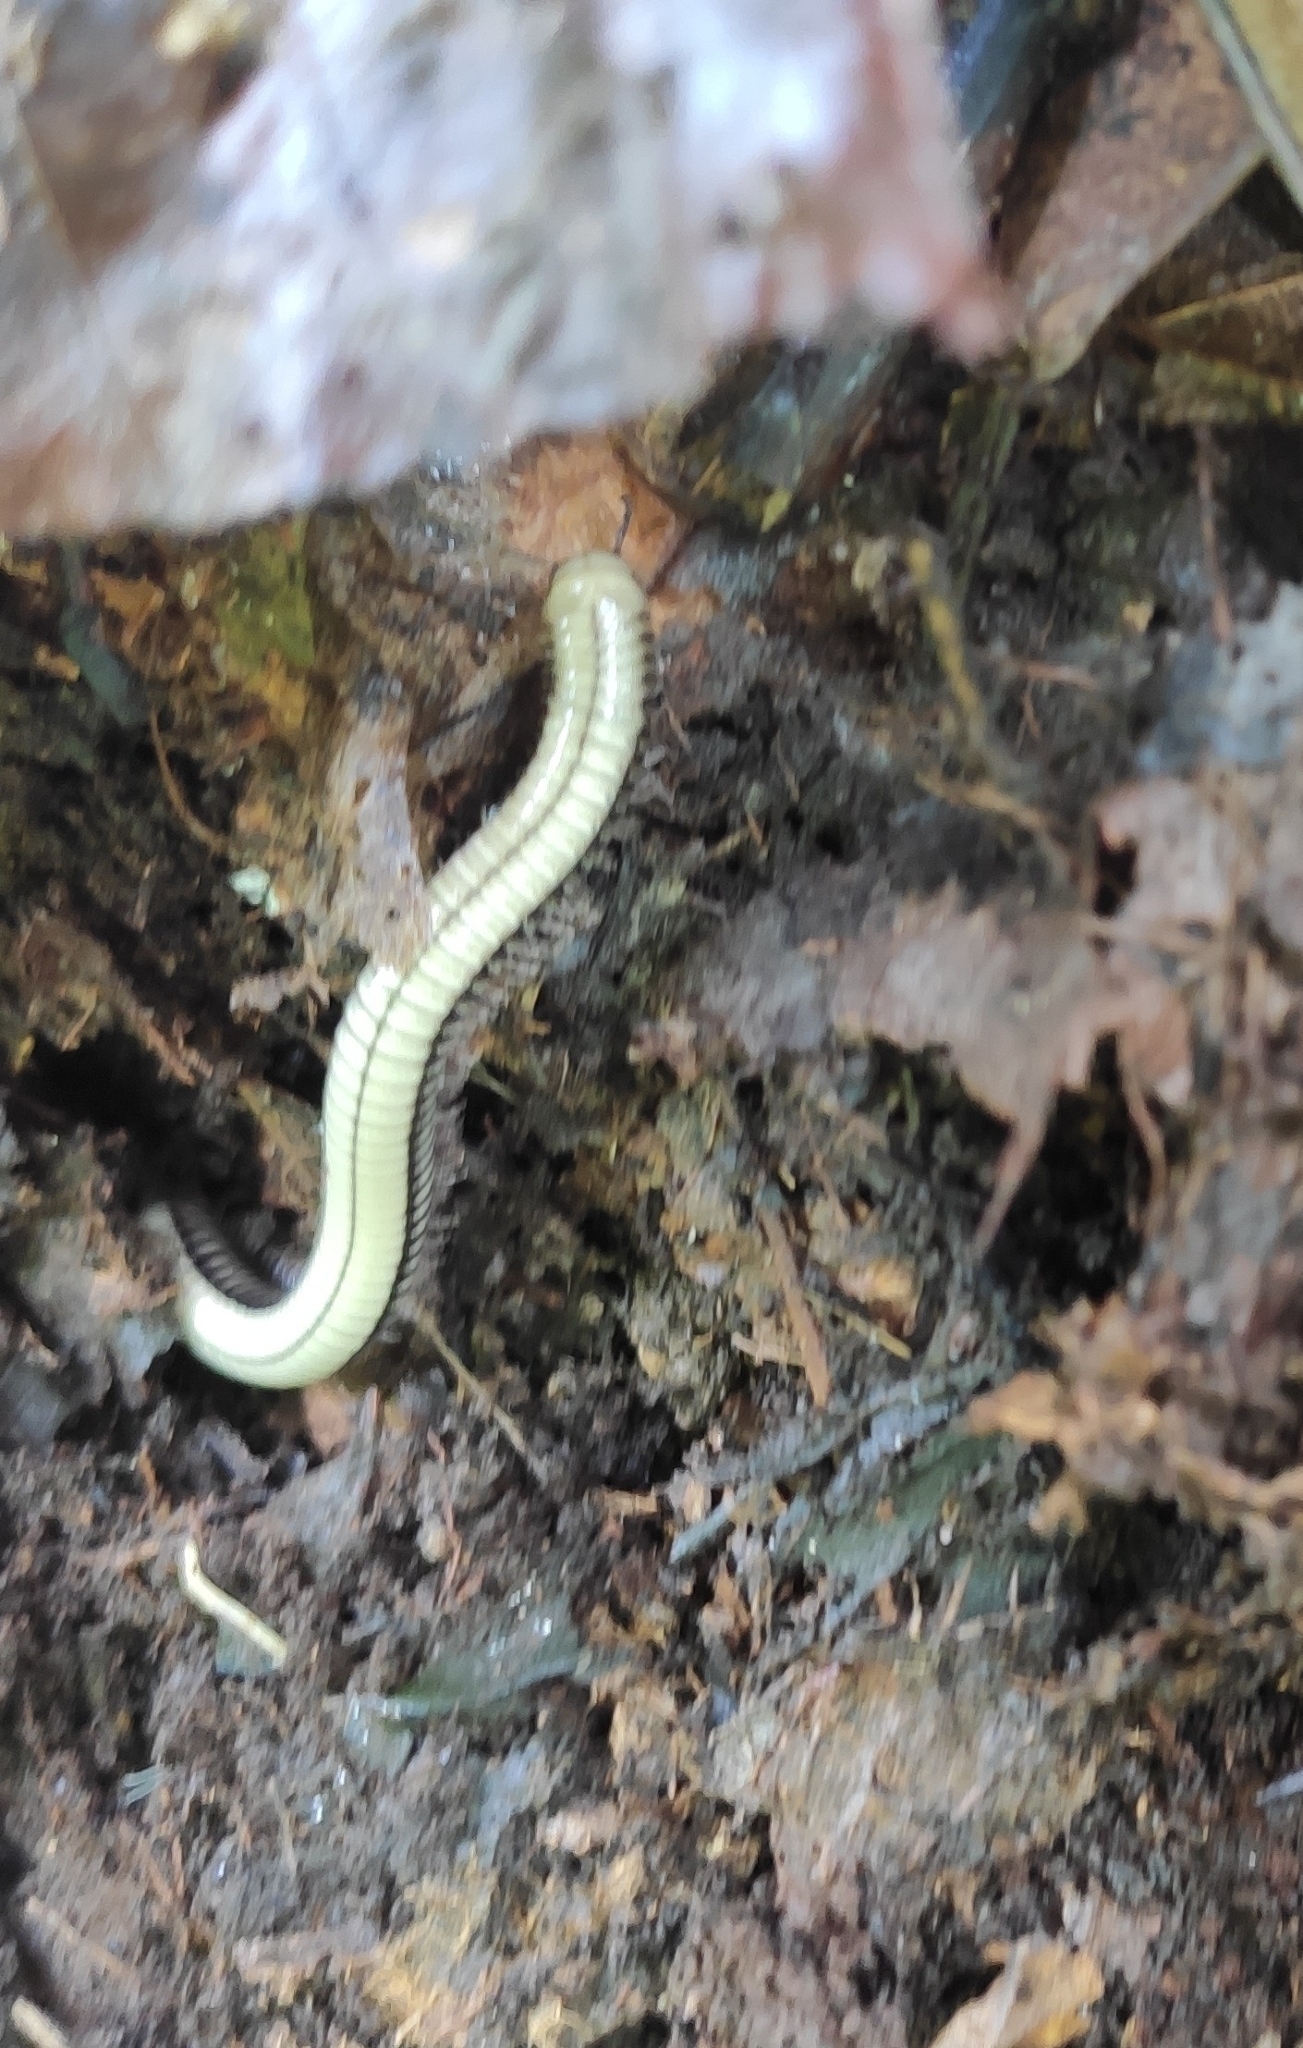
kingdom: Animalia
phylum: Arthropoda
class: Diplopoda
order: Julida
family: Julidae
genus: Pachyiulus
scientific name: Pachyiulus krivolutskyi
